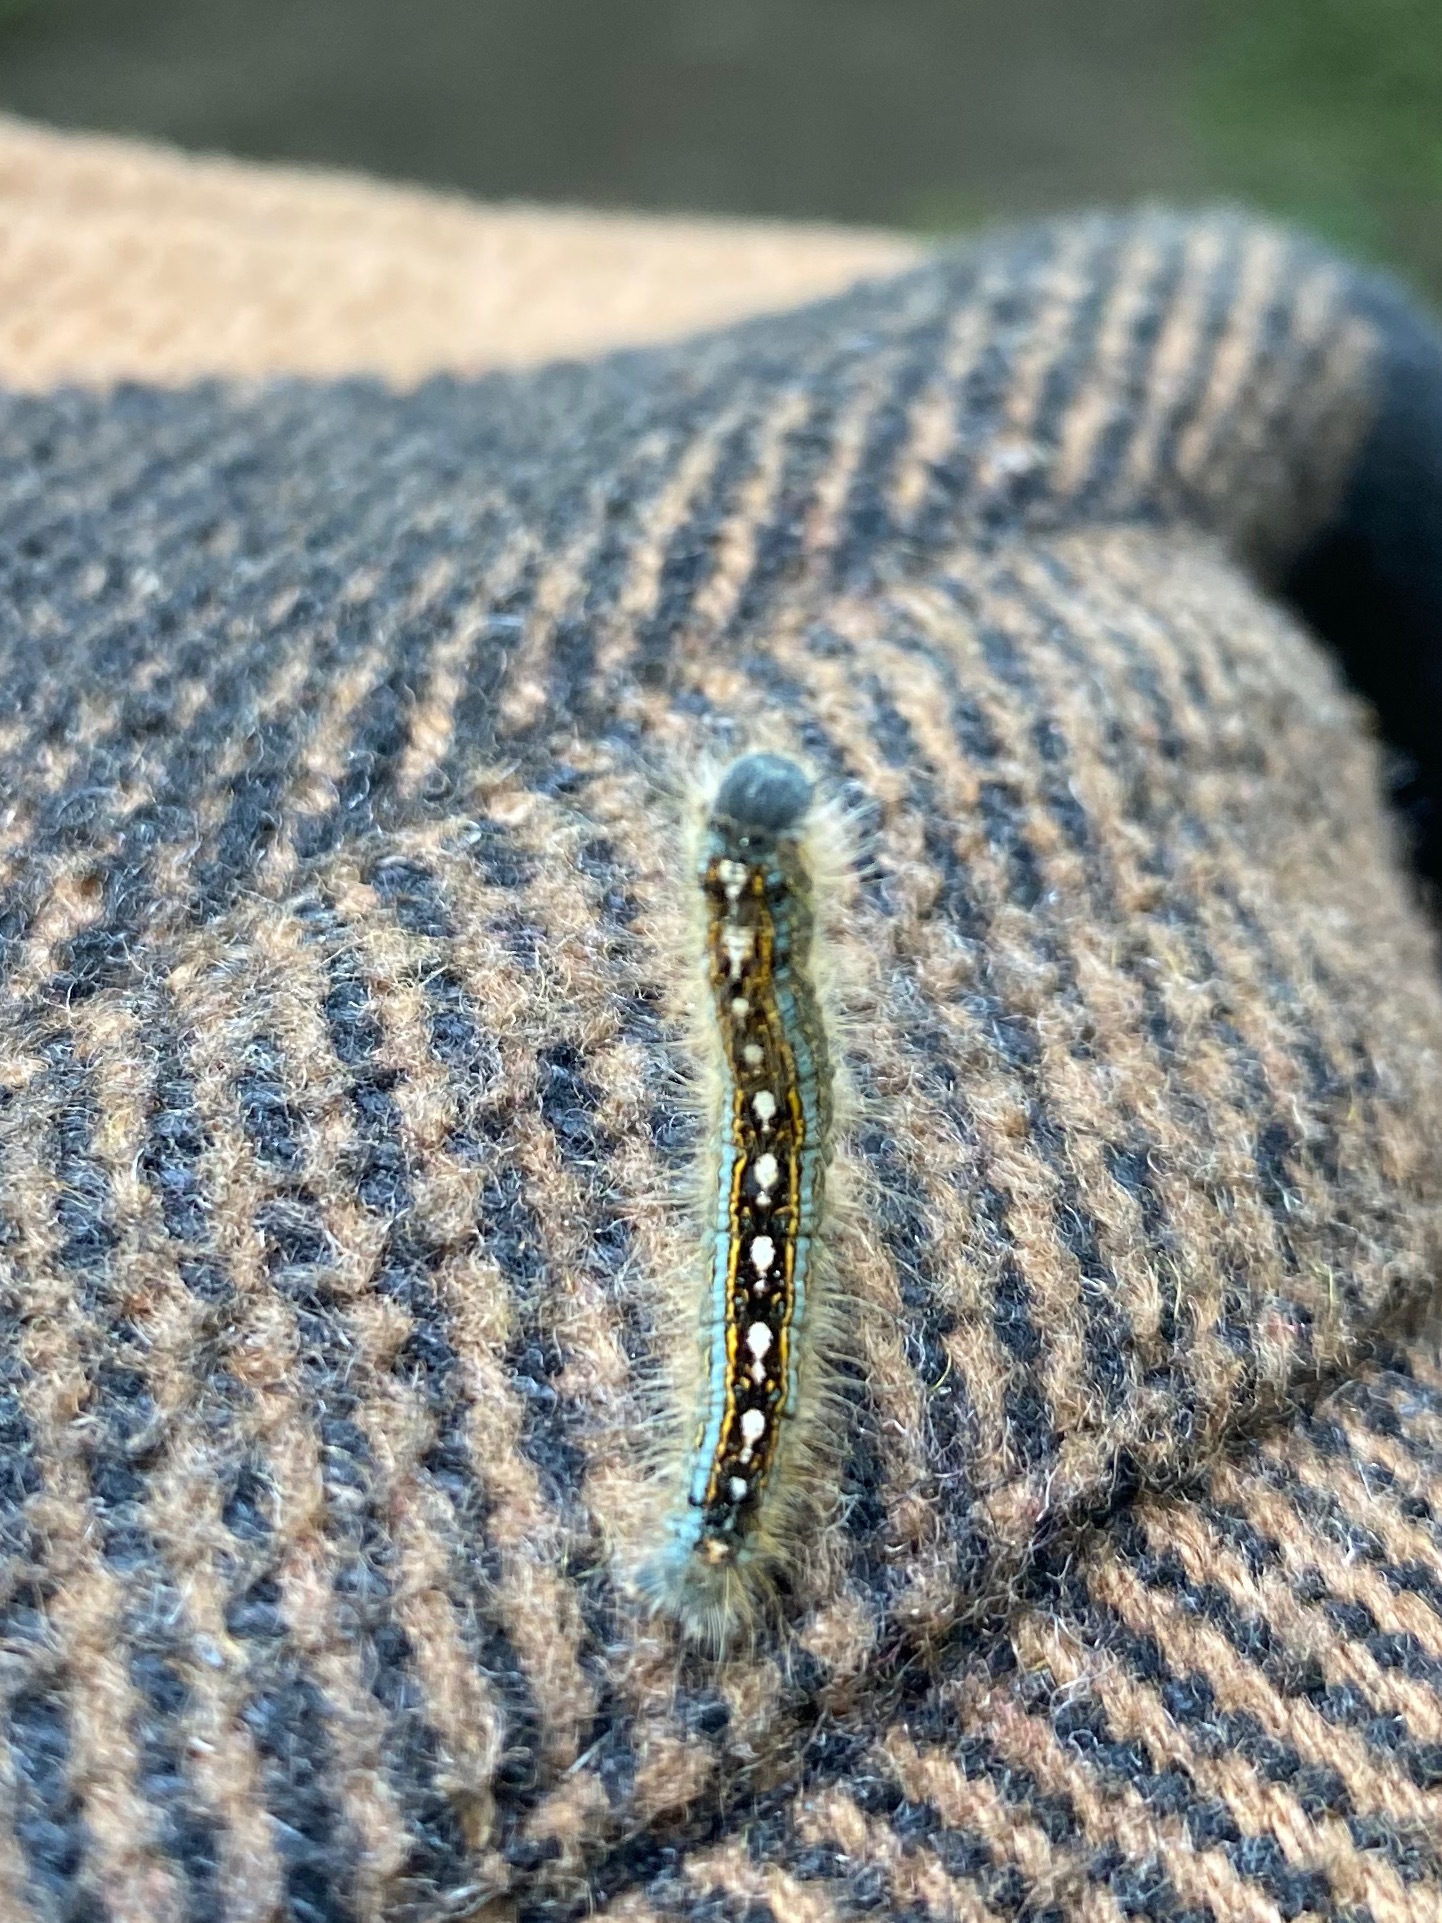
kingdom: Animalia
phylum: Arthropoda
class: Insecta
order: Lepidoptera
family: Lasiocampidae
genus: Malacosoma
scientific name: Malacosoma disstria
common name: Forest tent caterpillar
